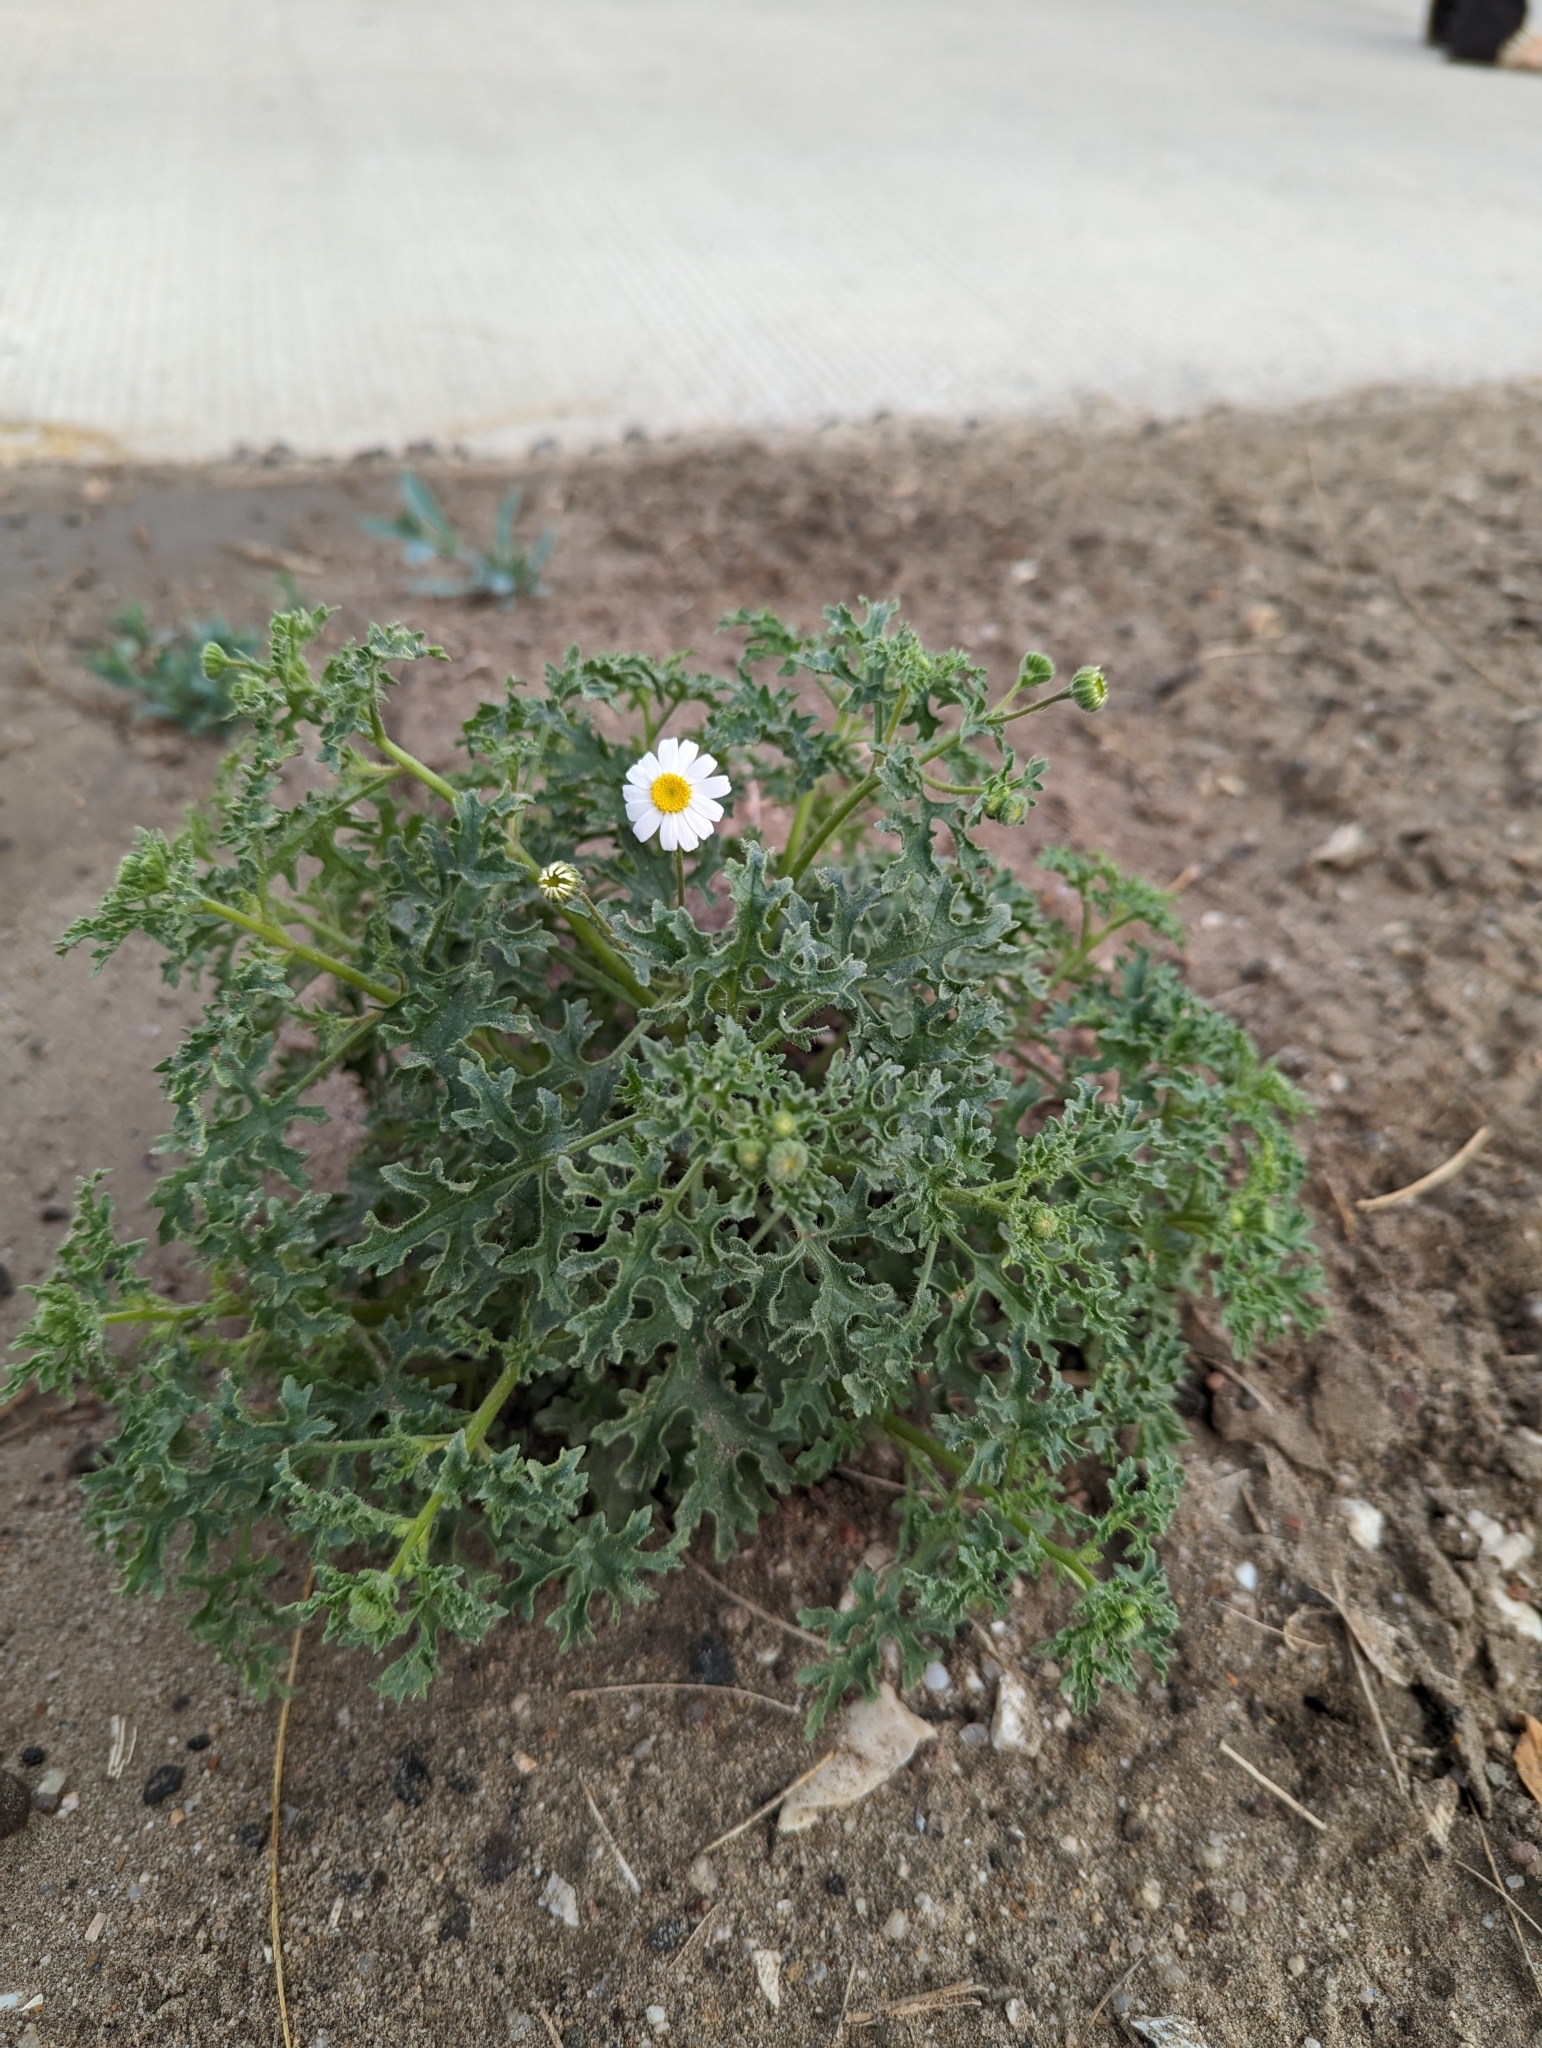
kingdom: Plantae
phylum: Tracheophyta
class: Magnoliopsida
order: Asterales
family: Asteraceae
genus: Perityle
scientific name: Perityle crassifolia
